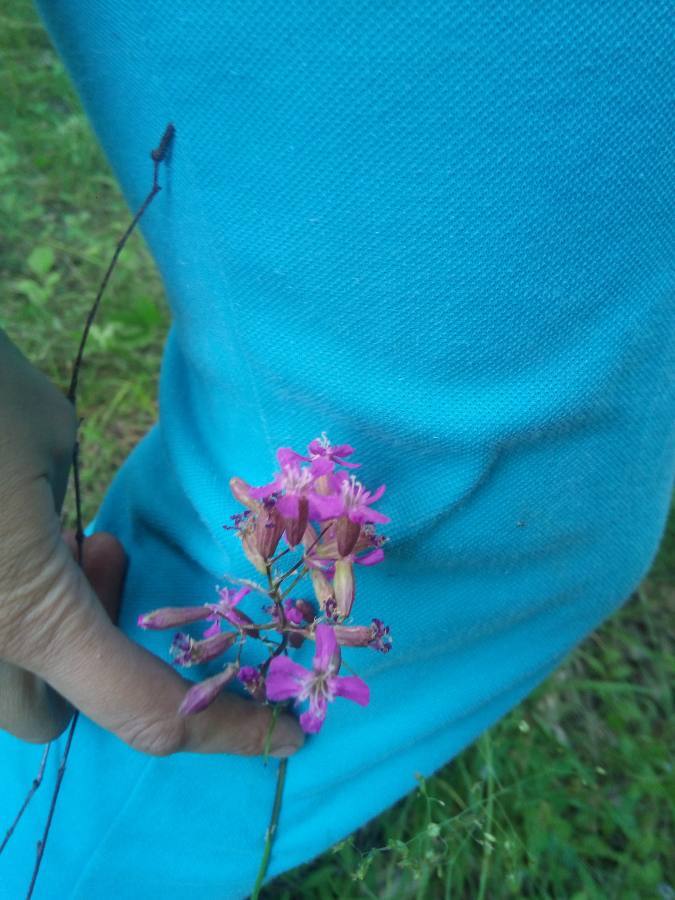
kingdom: Plantae
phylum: Tracheophyta
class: Magnoliopsida
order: Caryophyllales
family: Caryophyllaceae
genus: Viscaria
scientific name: Viscaria vulgaris
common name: Clammy campion
